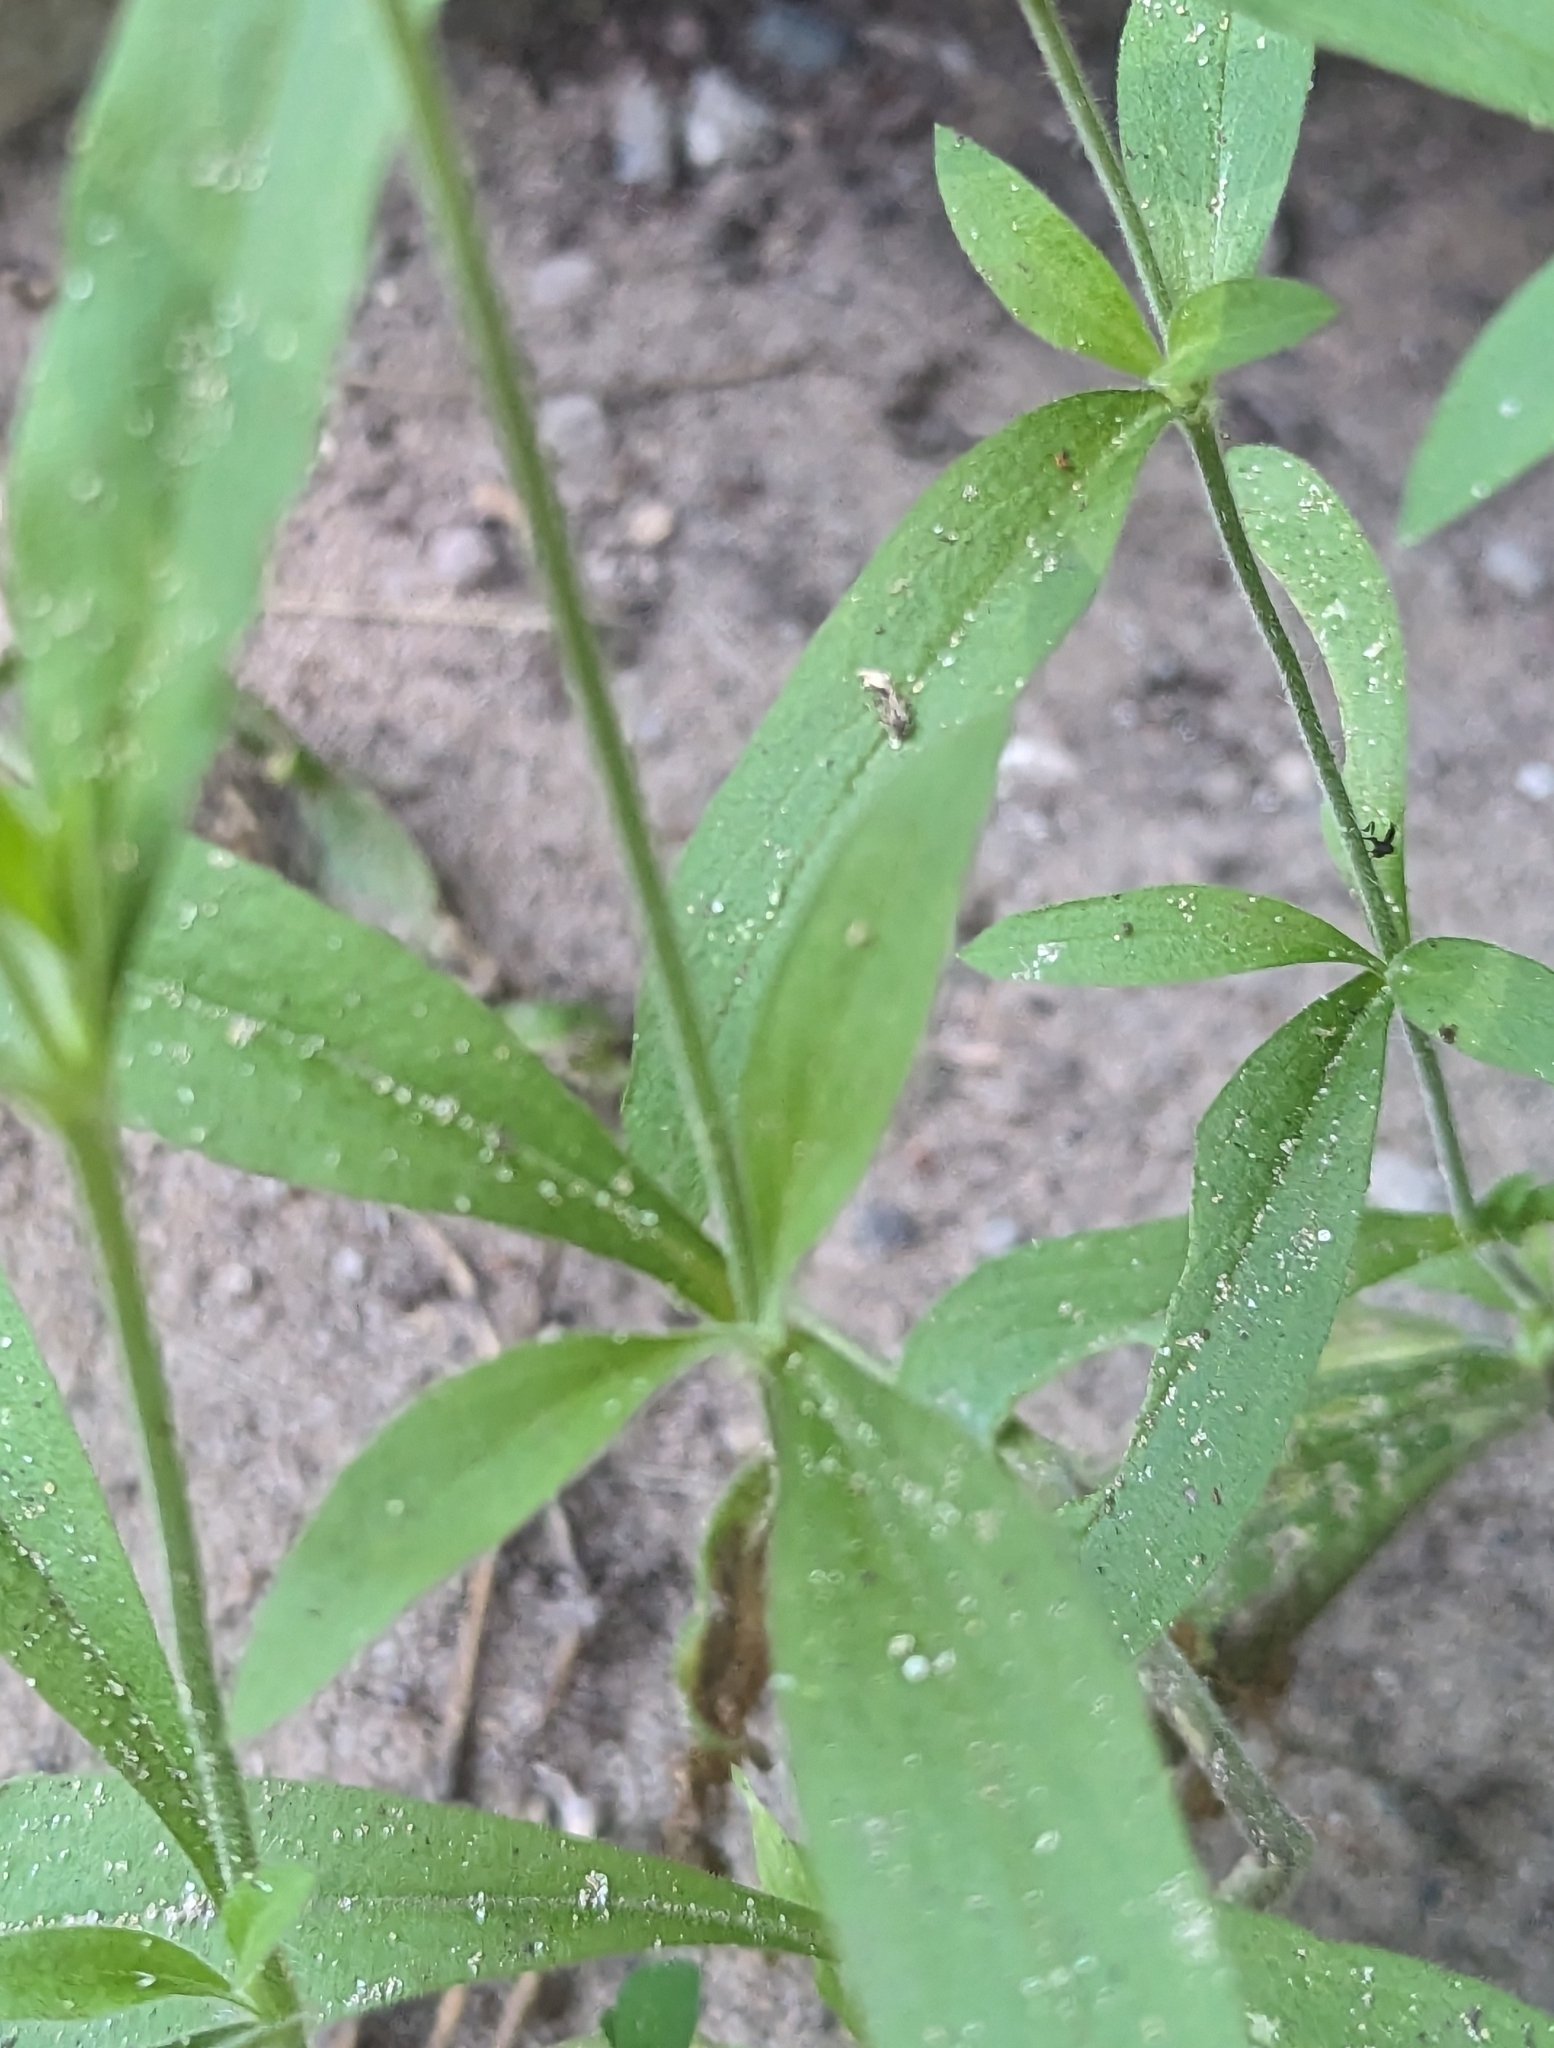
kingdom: Plantae
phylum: Tracheophyta
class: Magnoliopsida
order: Caryophyllales
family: Caryophyllaceae
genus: Silene
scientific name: Silene latifolia
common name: White campion
